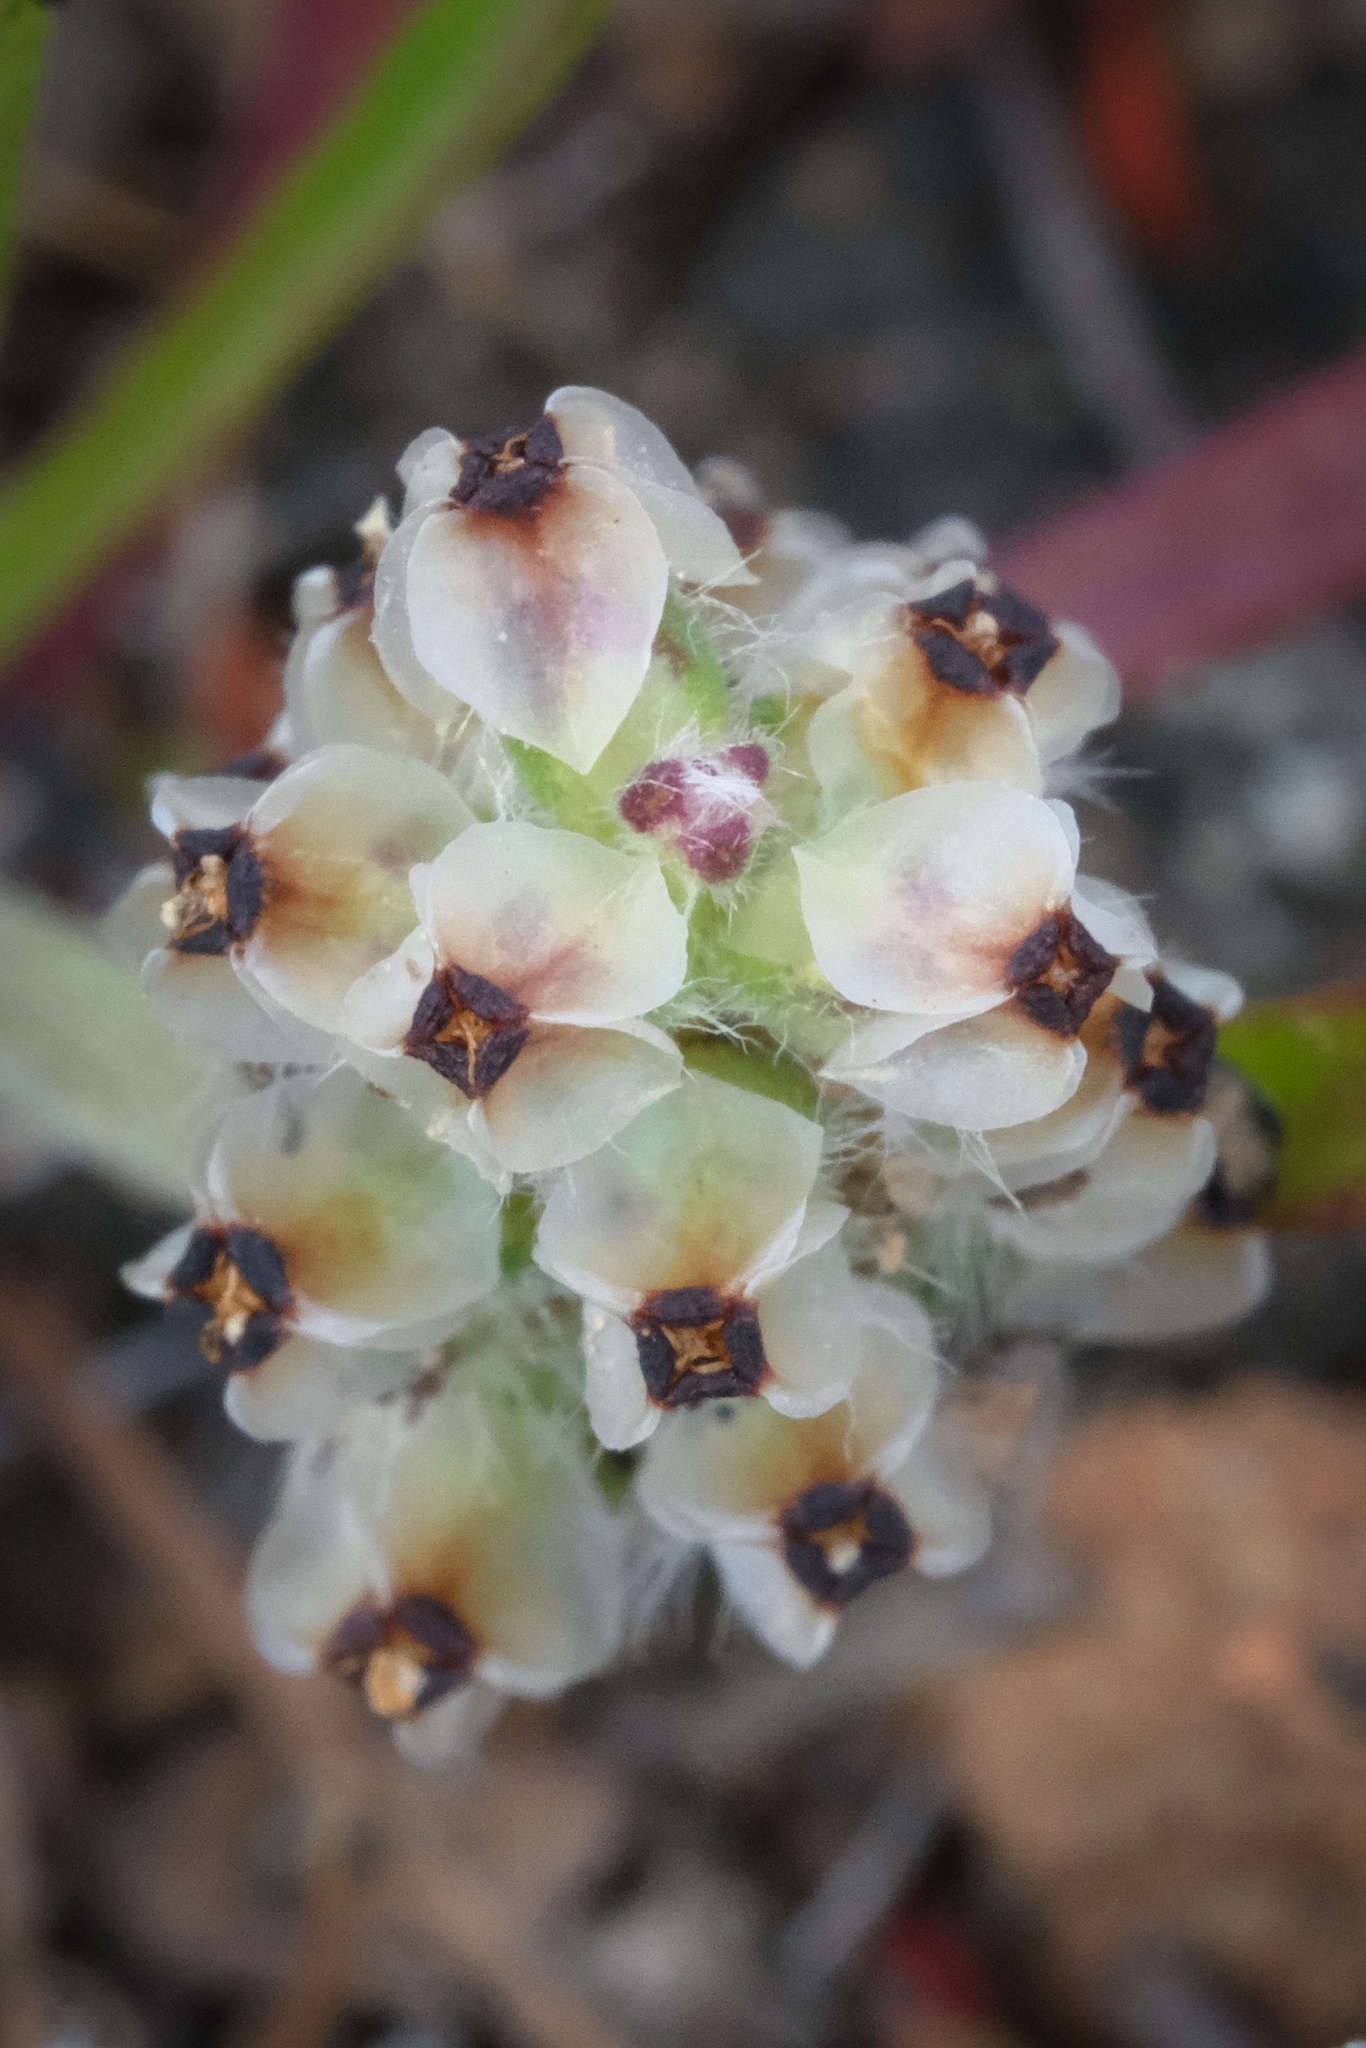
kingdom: Plantae
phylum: Tracheophyta
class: Magnoliopsida
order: Lamiales
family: Plantaginaceae
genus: Plantago
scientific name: Plantago erecta
